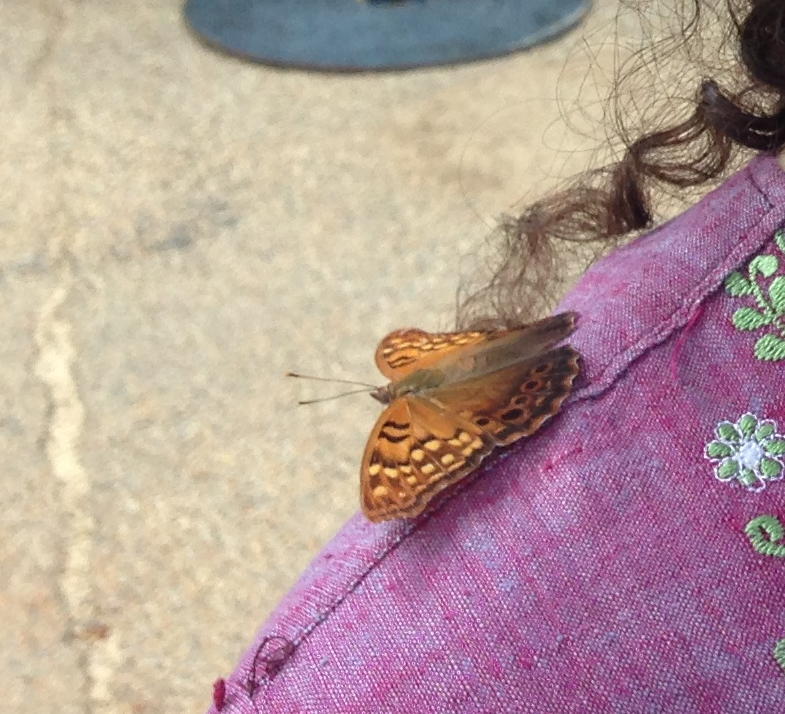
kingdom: Animalia
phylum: Arthropoda
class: Insecta
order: Lepidoptera
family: Nymphalidae
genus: Asterocampa
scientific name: Asterocampa clyton
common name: Tawny emperor
